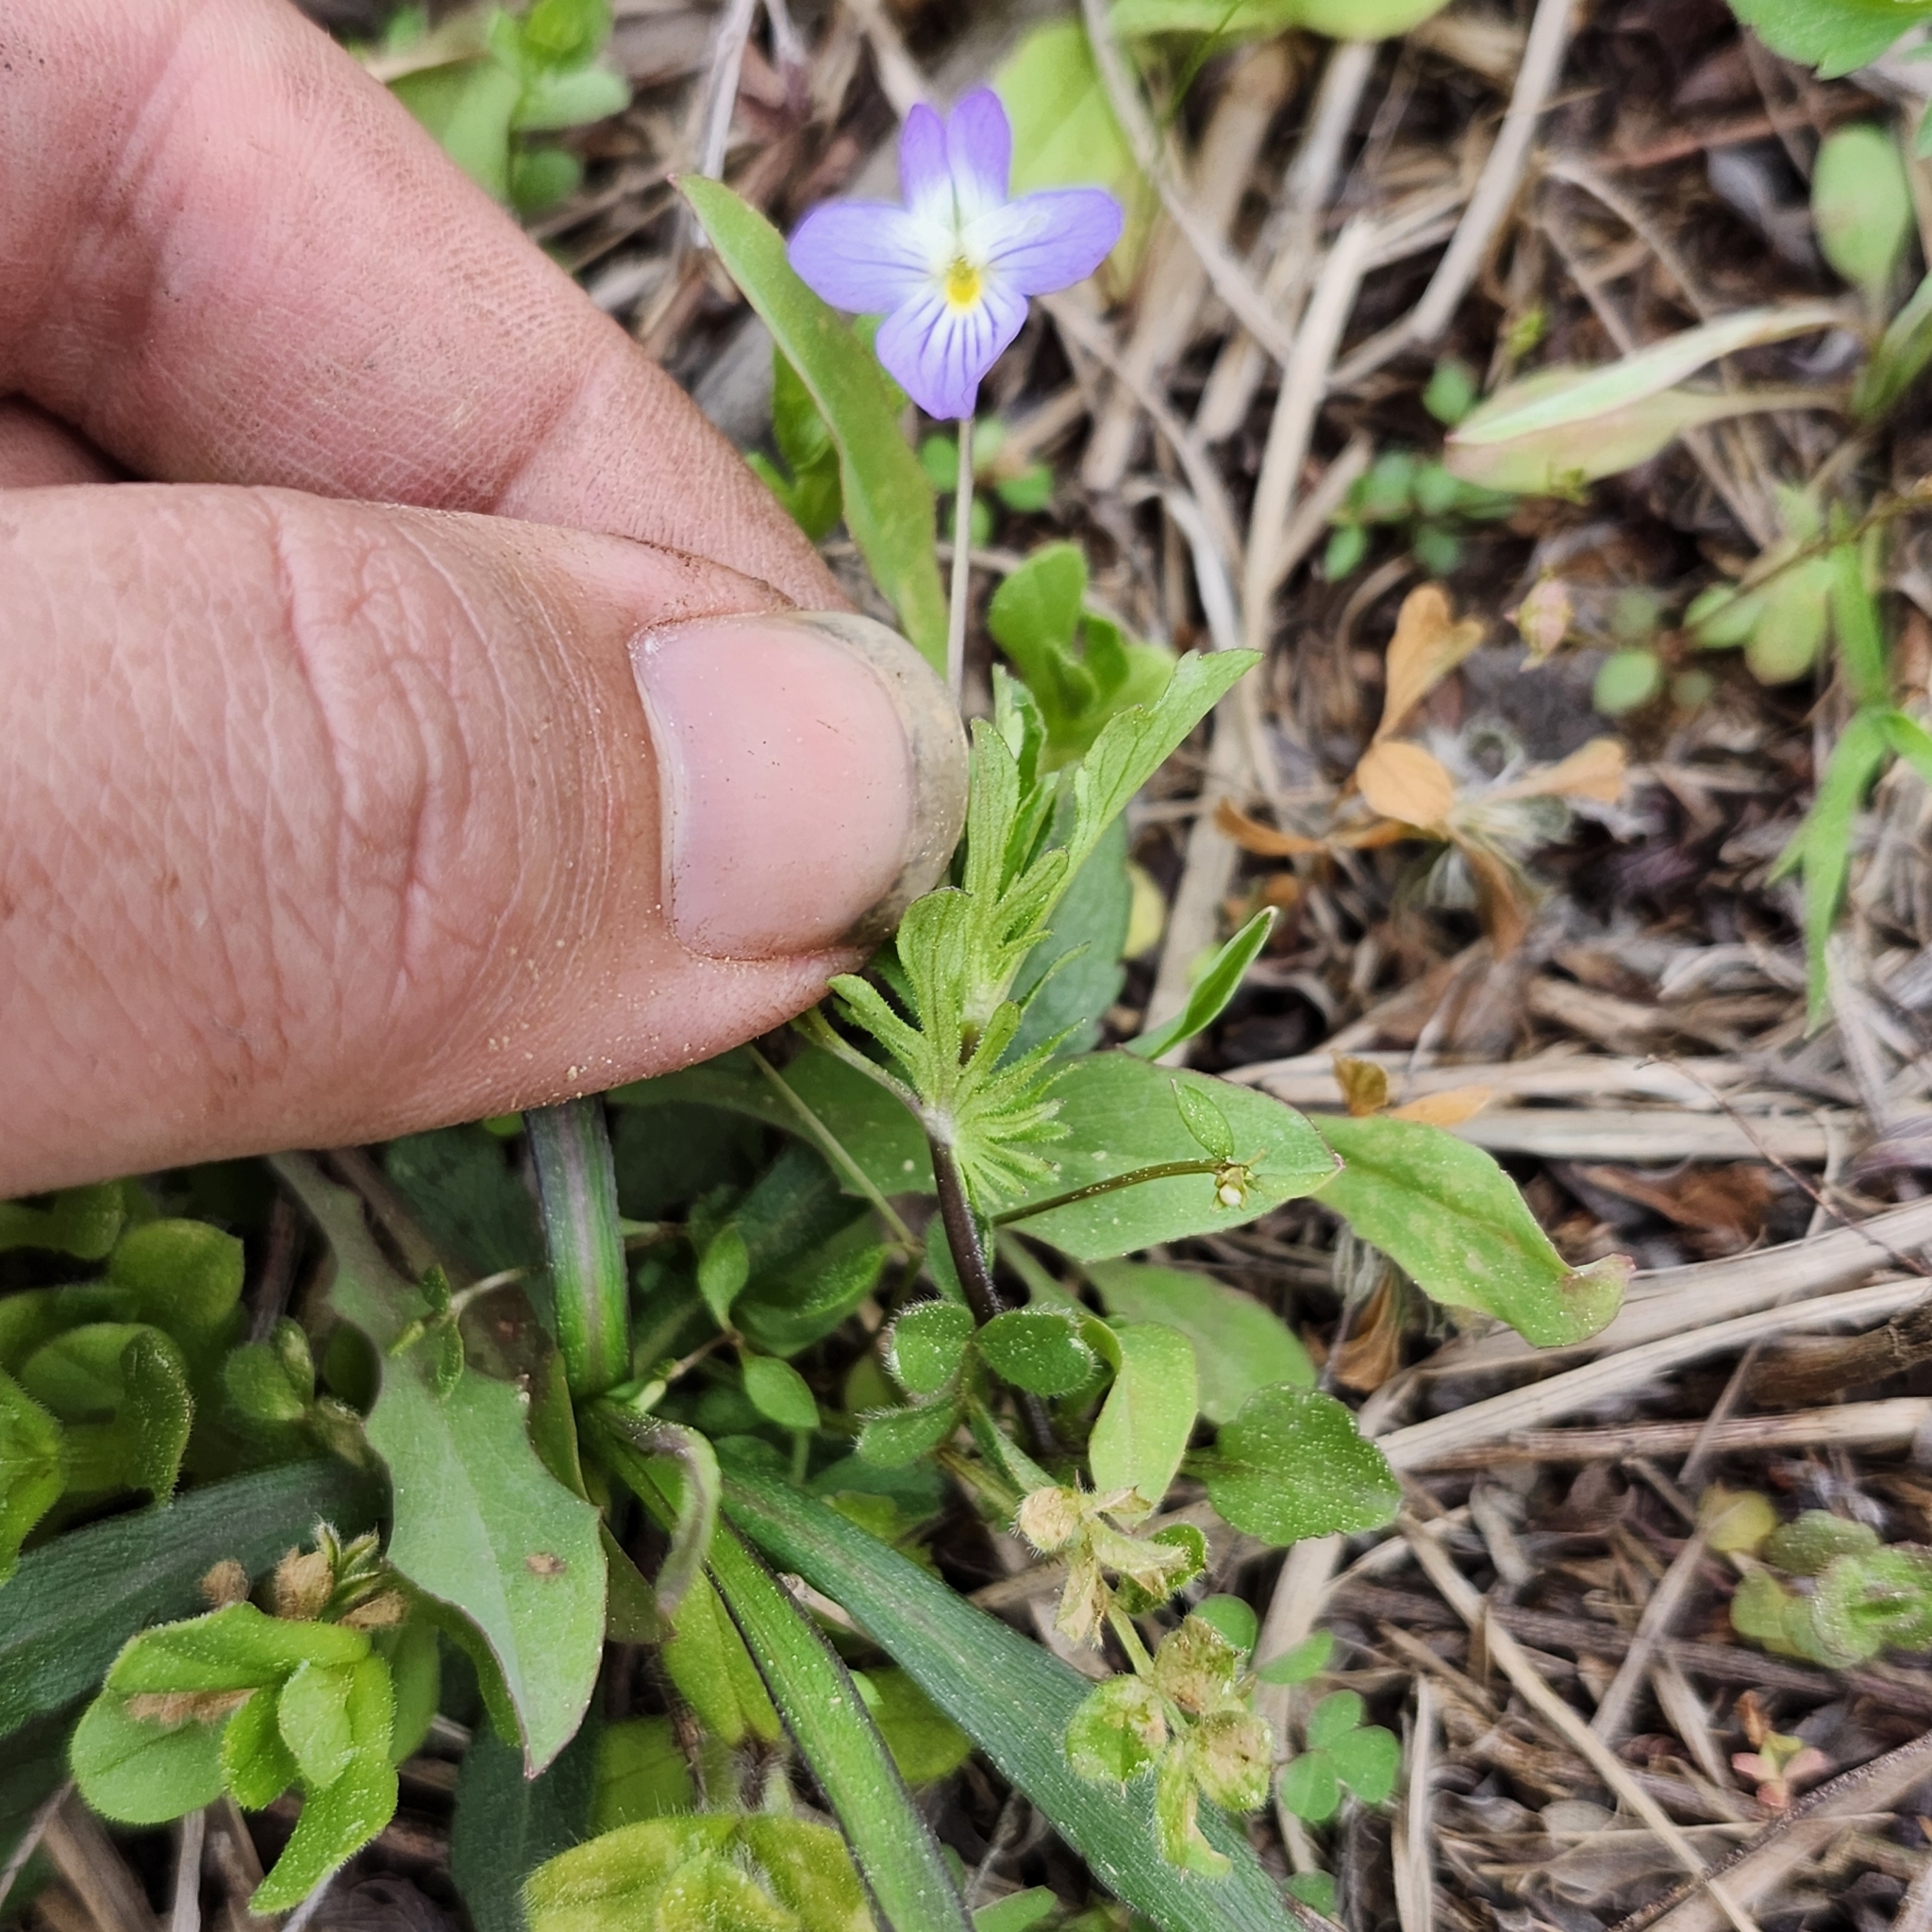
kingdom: Plantae
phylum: Tracheophyta
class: Magnoliopsida
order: Malpighiales
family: Violaceae
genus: Viola
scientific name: Viola rafinesquei
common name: American field pansy
